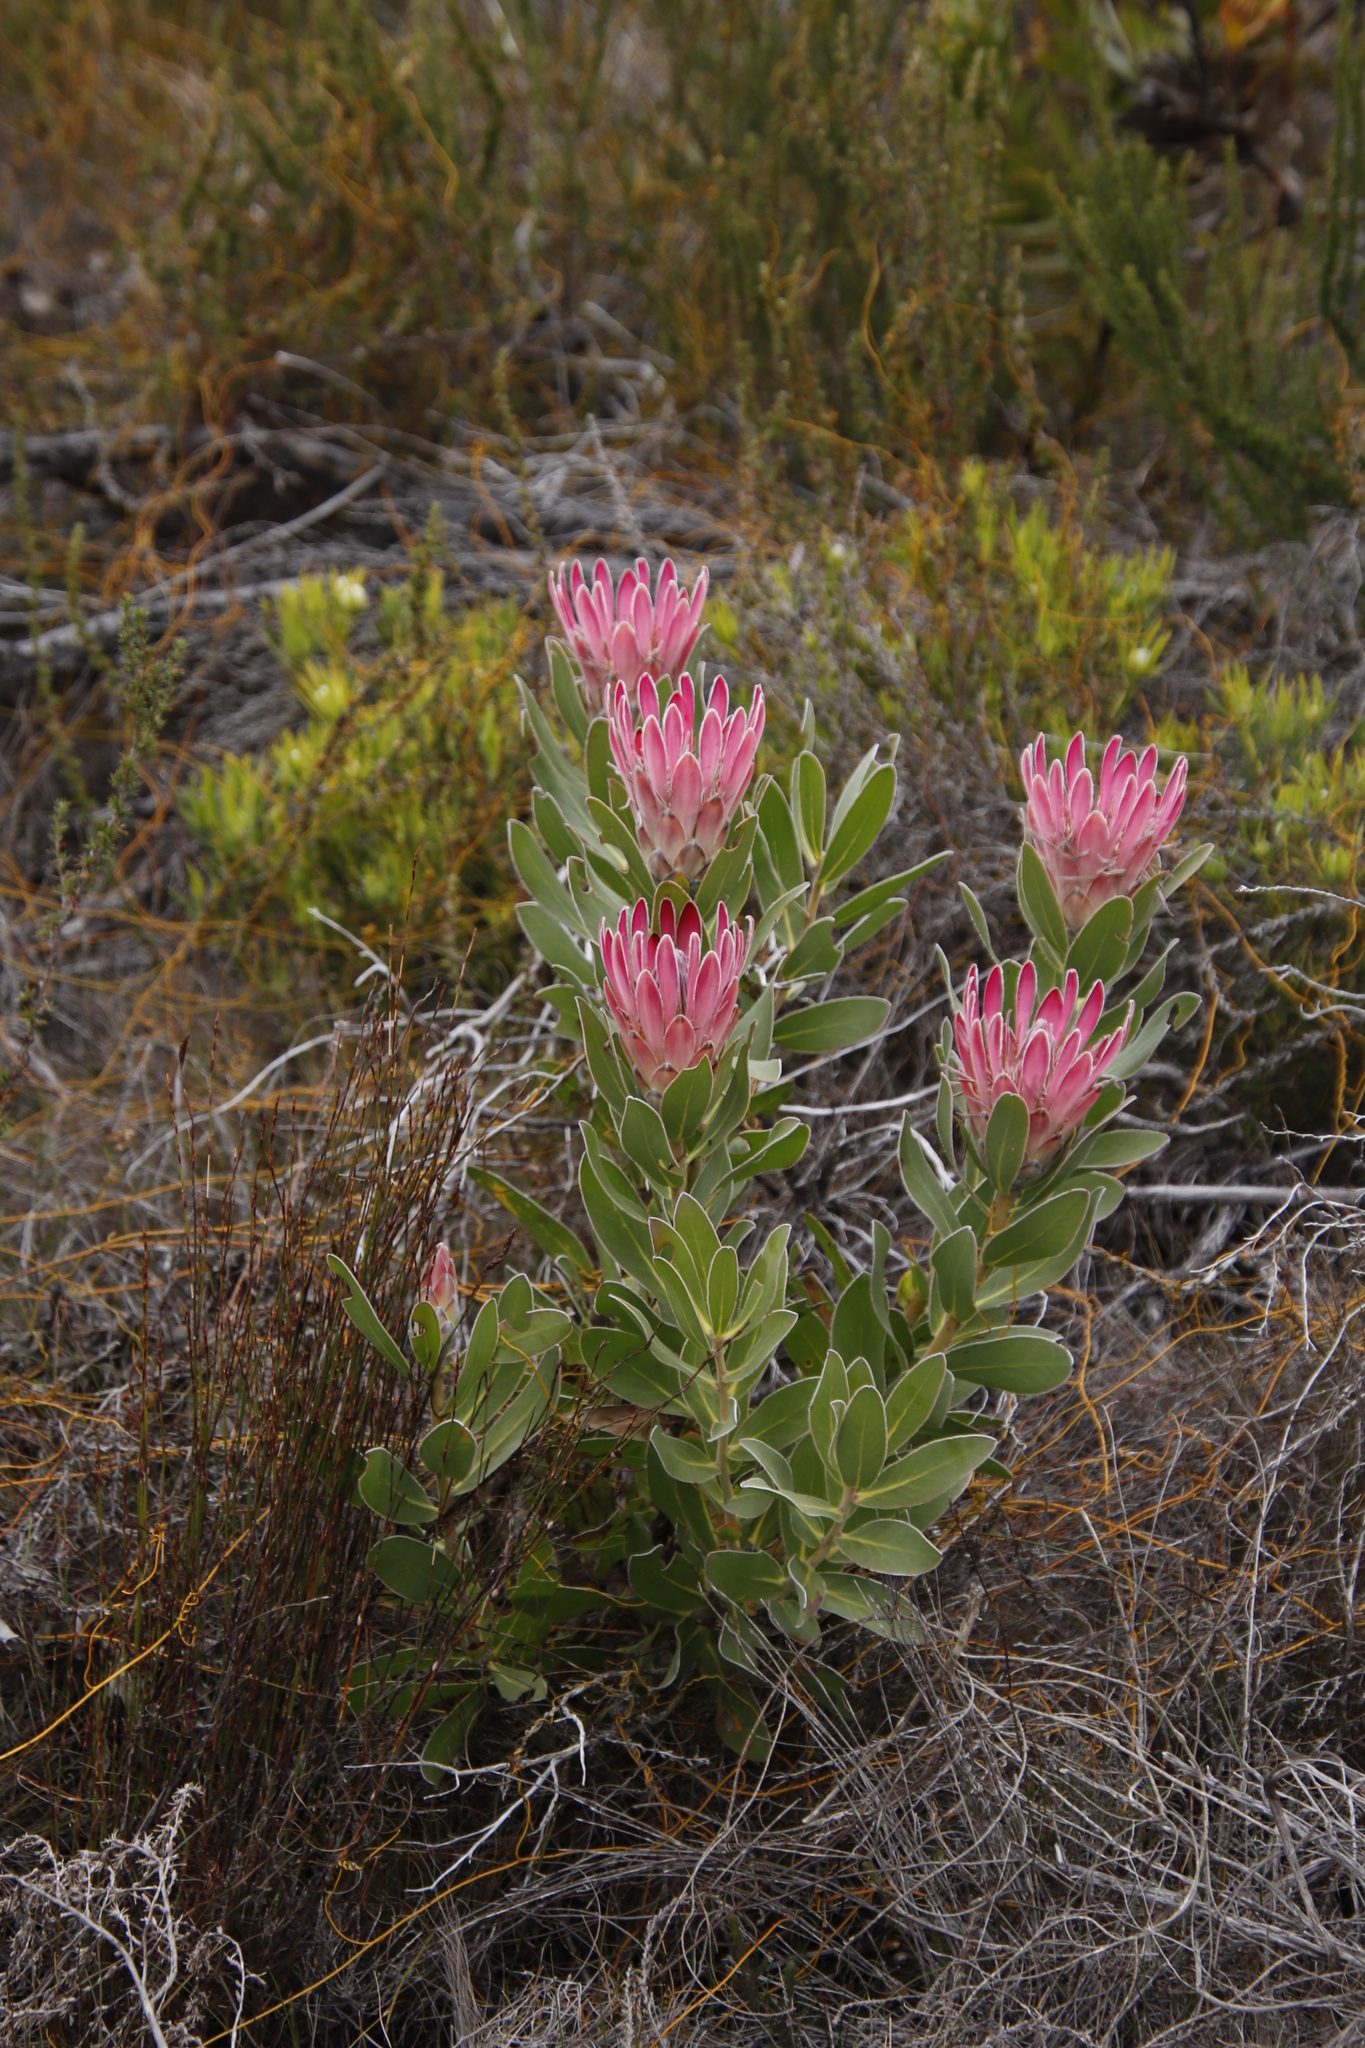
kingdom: Plantae
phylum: Tracheophyta
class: Magnoliopsida
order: Proteales
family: Proteaceae
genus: Protea
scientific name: Protea compacta
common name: Bot river protea
